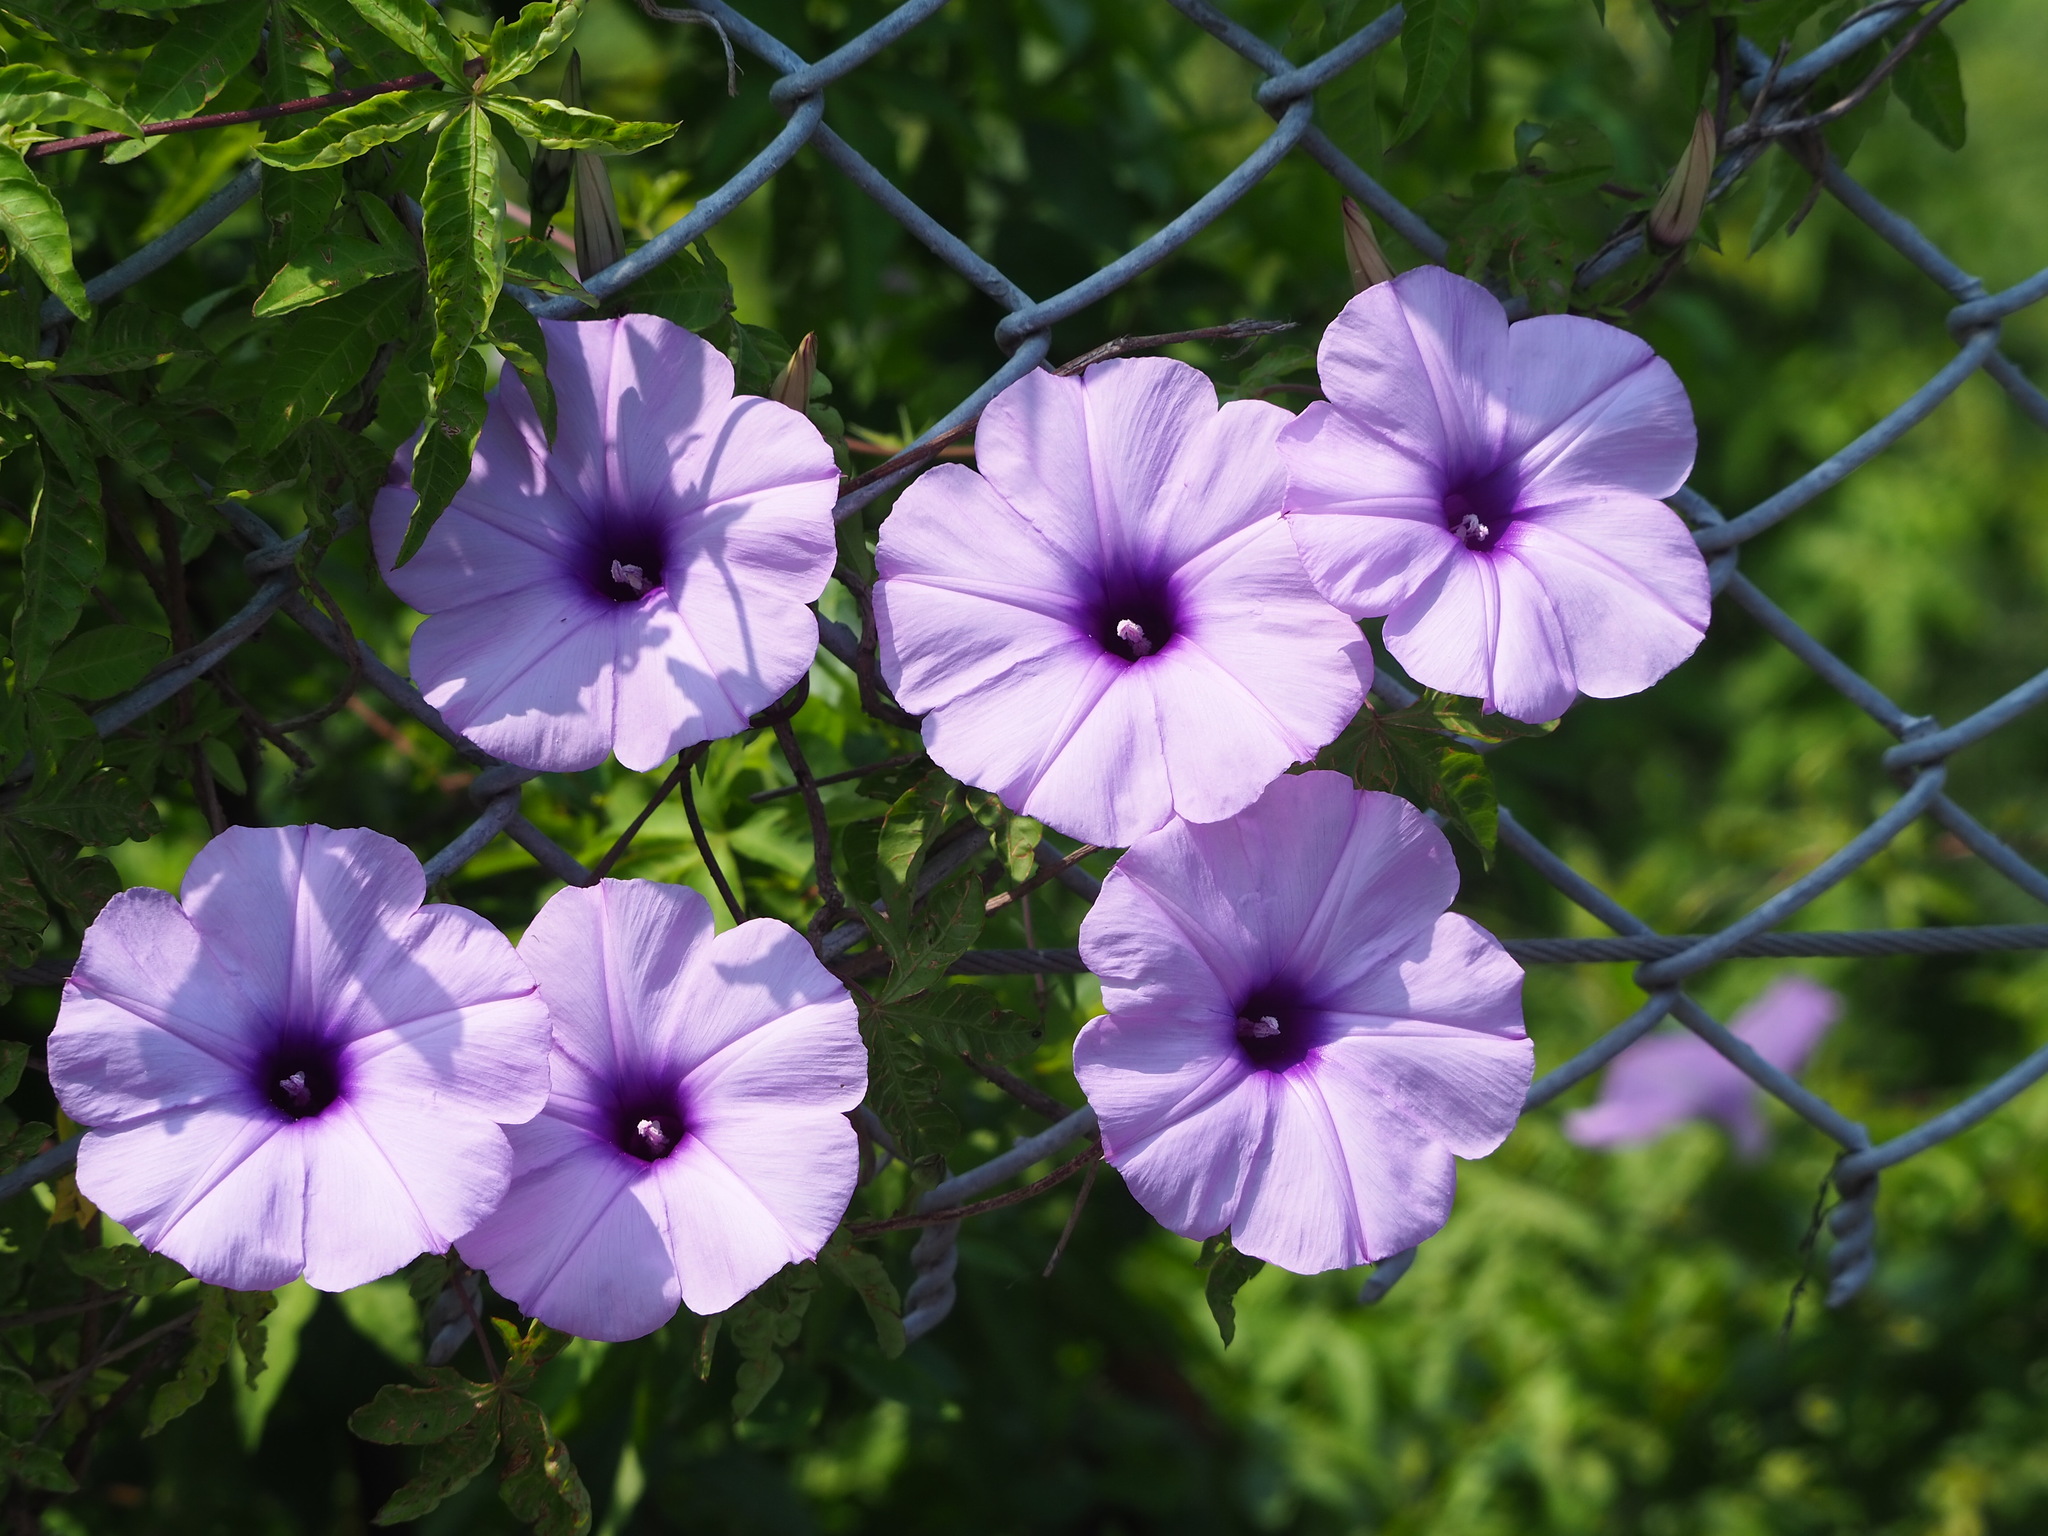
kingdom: Plantae
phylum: Tracheophyta
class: Magnoliopsida
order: Solanales
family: Convolvulaceae
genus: Ipomoea
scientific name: Ipomoea cairica
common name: Mile a minute vine
